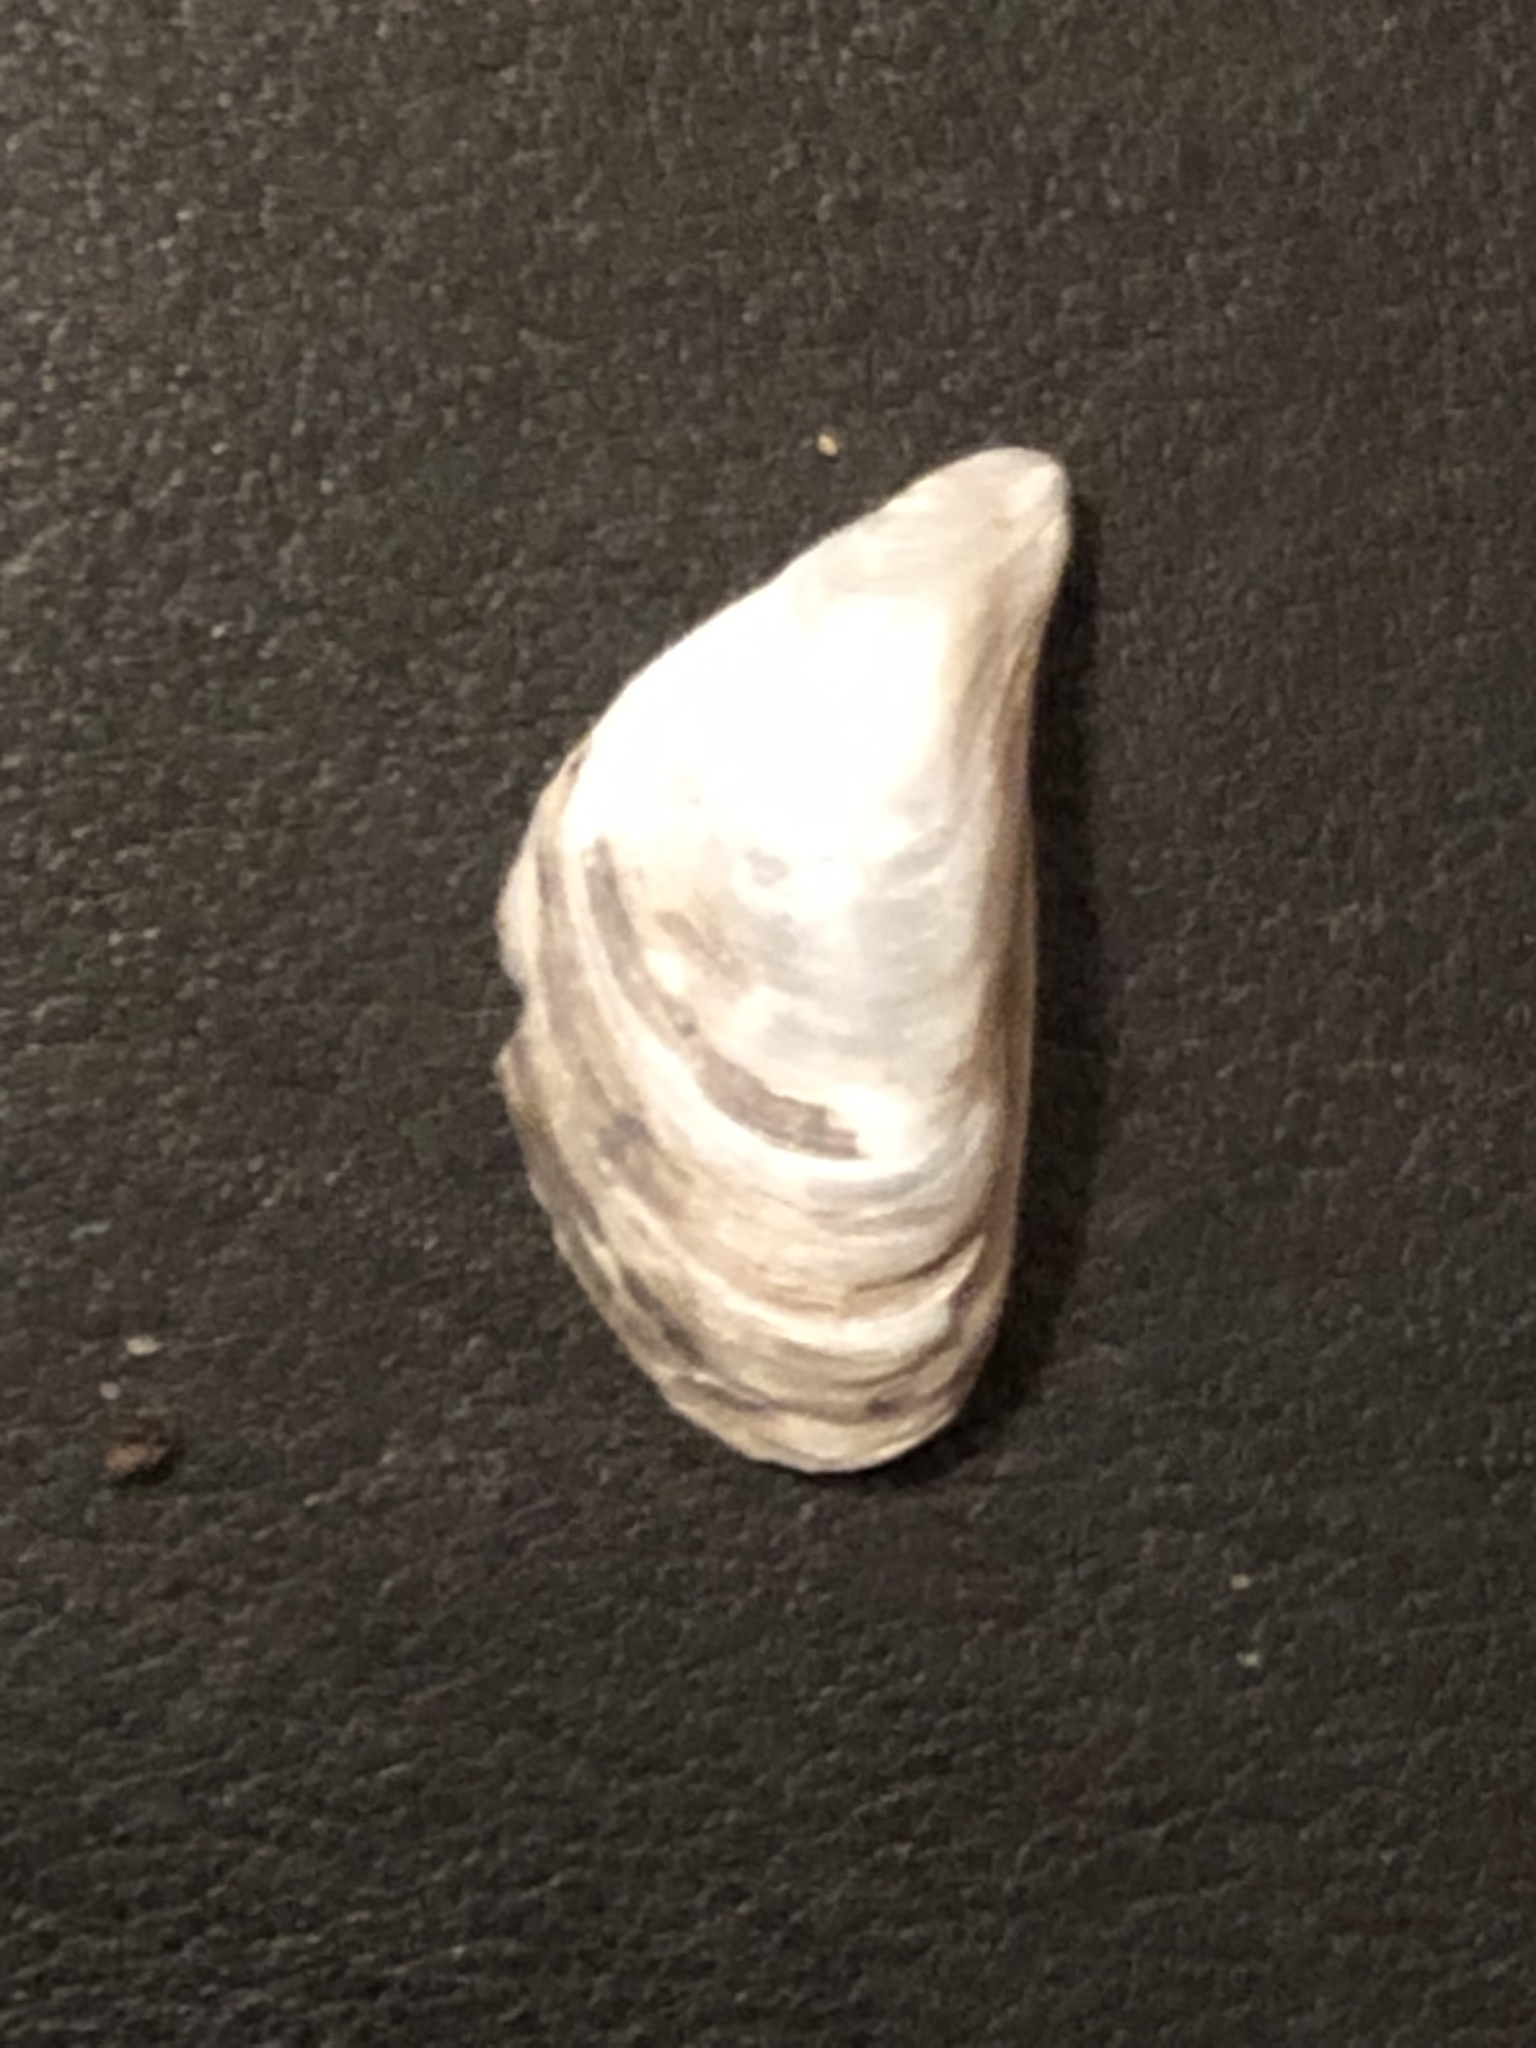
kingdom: Animalia
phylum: Mollusca
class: Bivalvia
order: Myida
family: Dreissenidae
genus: Dreissena
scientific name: Dreissena bugensis
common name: Quagga mussel
